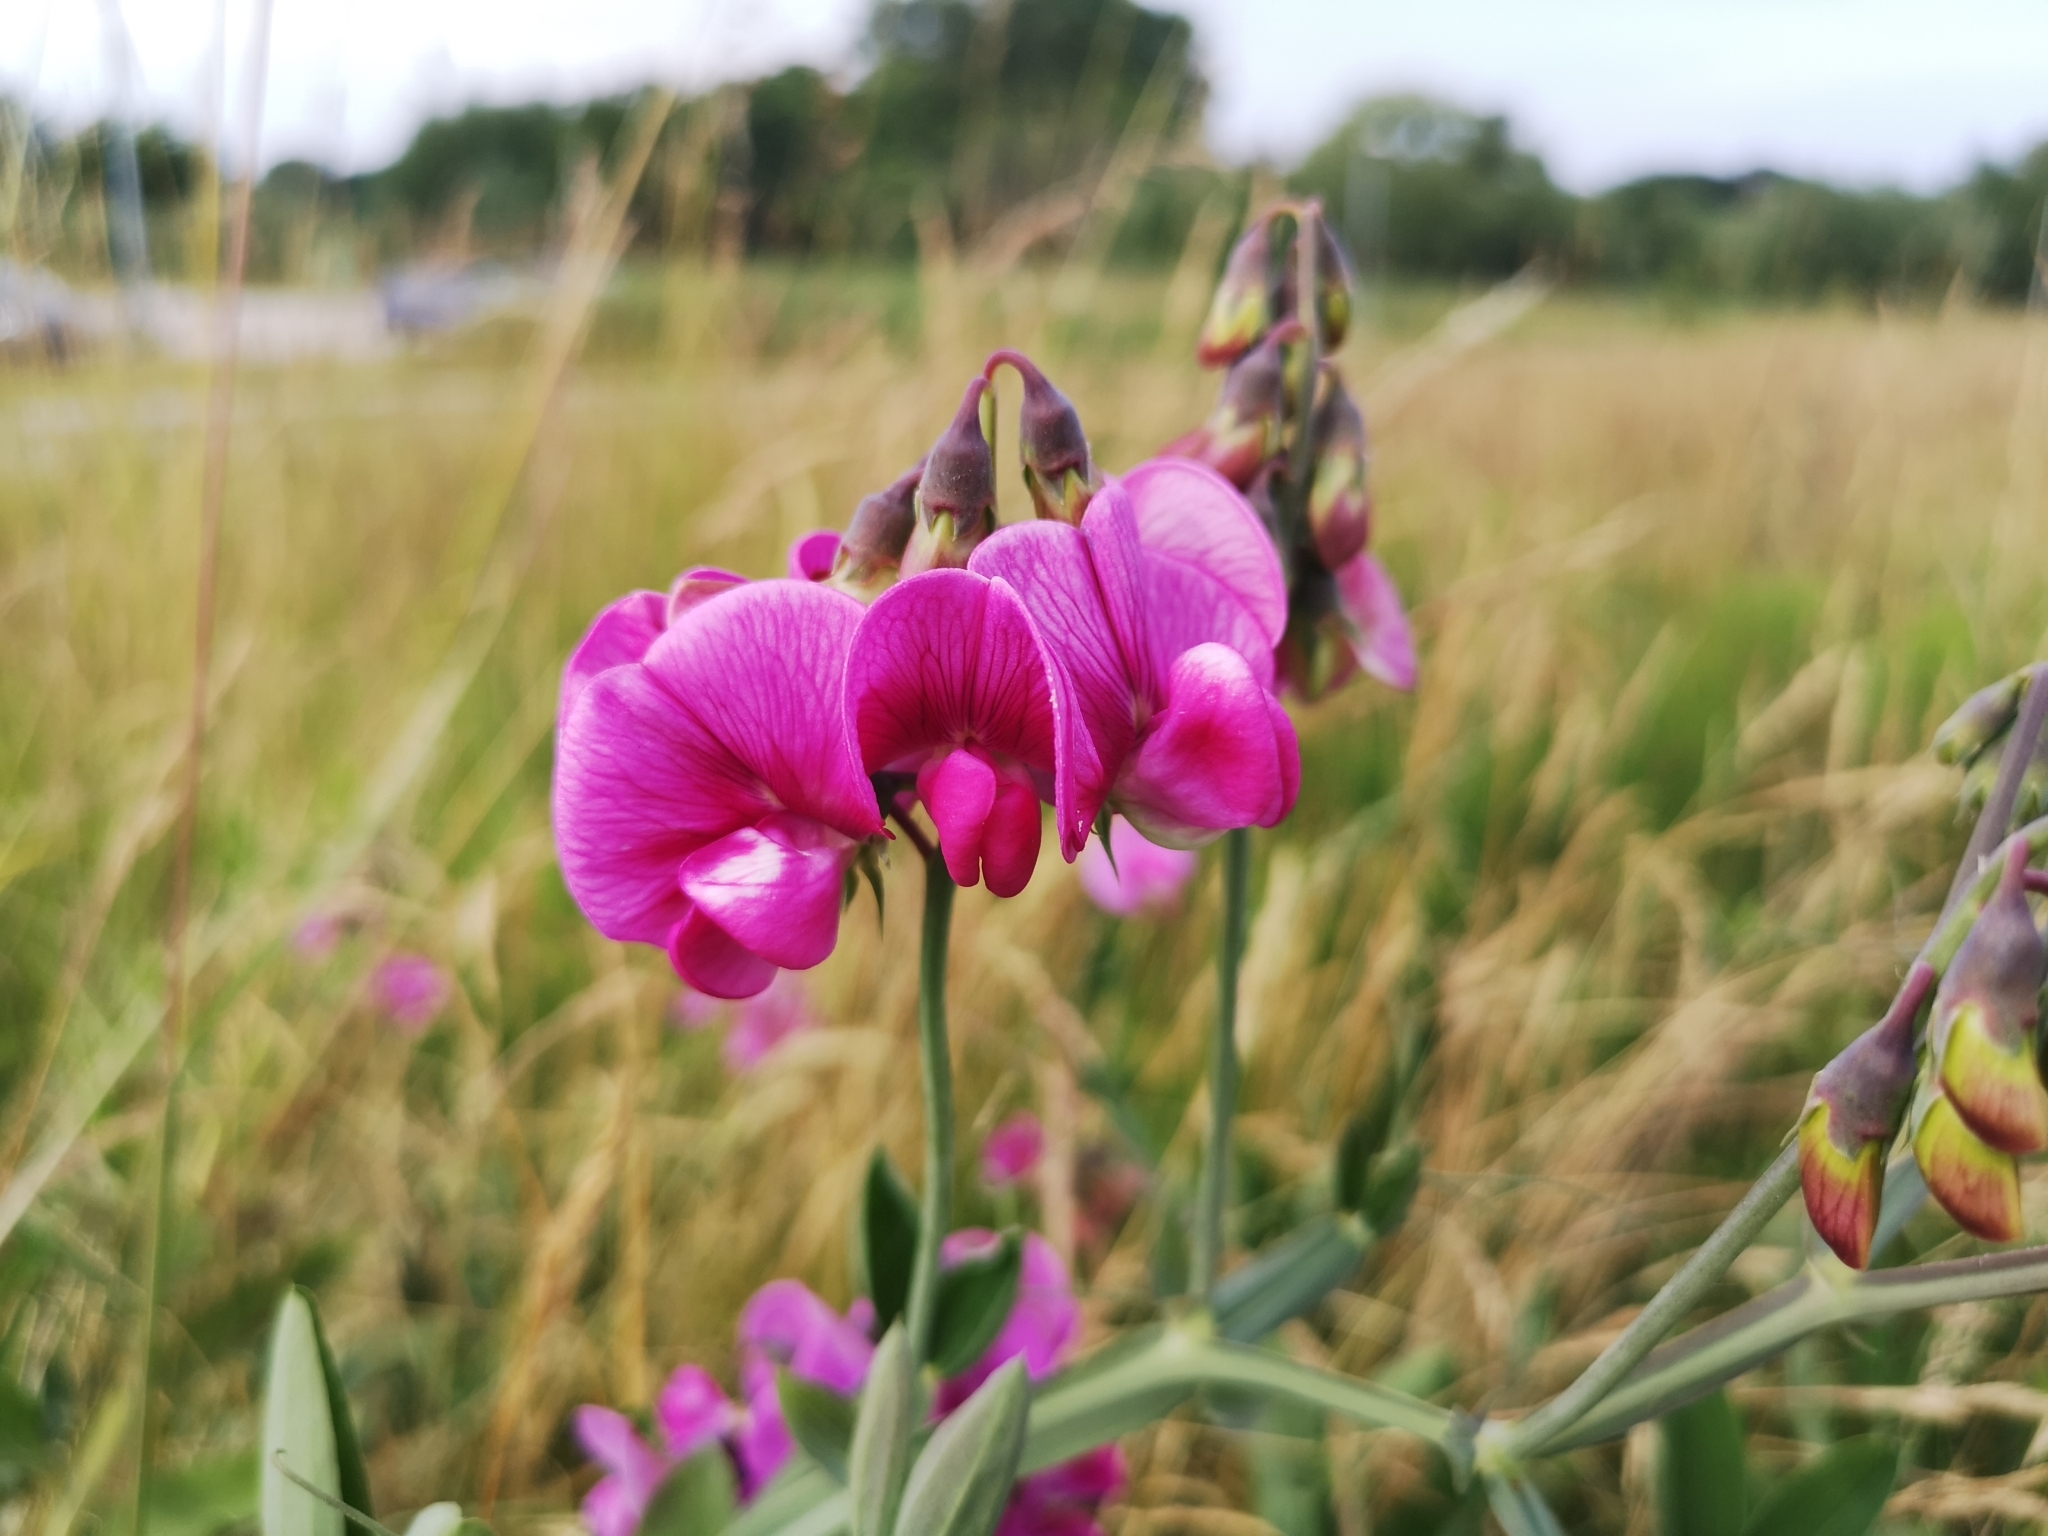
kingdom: Plantae
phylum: Tracheophyta
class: Magnoliopsida
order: Fabales
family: Fabaceae
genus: Lathyrus
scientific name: Lathyrus latifolius
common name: Perennial pea
